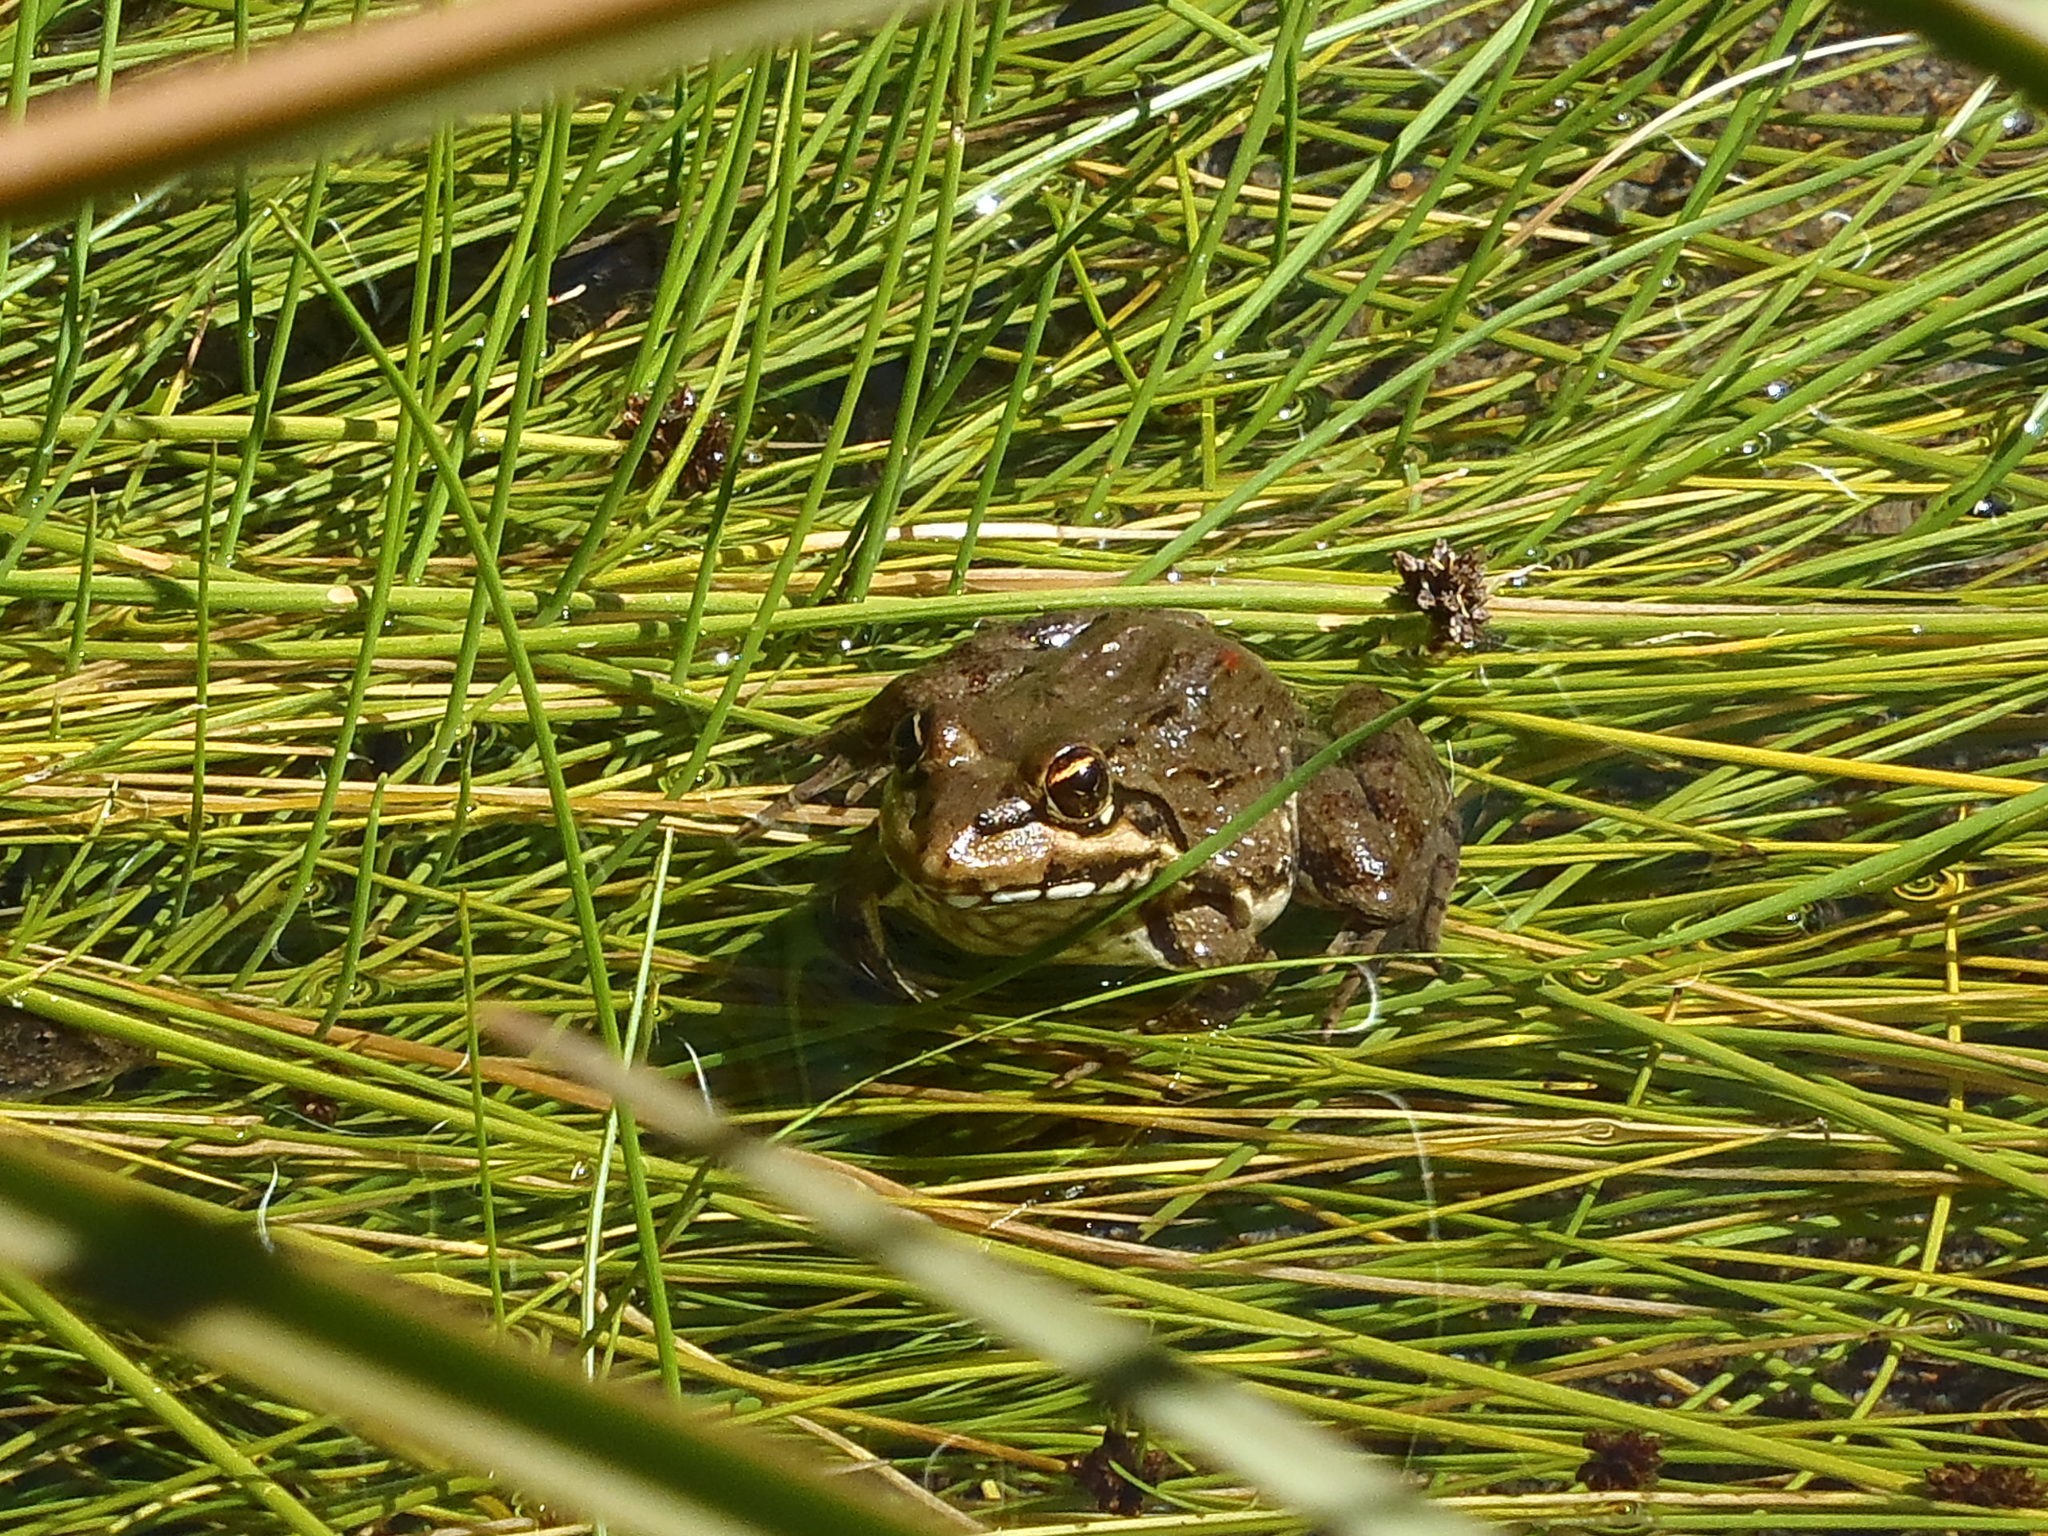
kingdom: Animalia
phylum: Chordata
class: Amphibia
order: Anura
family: Pyxicephalidae
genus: Amietia
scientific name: Amietia fuscigula
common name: Cape rana
